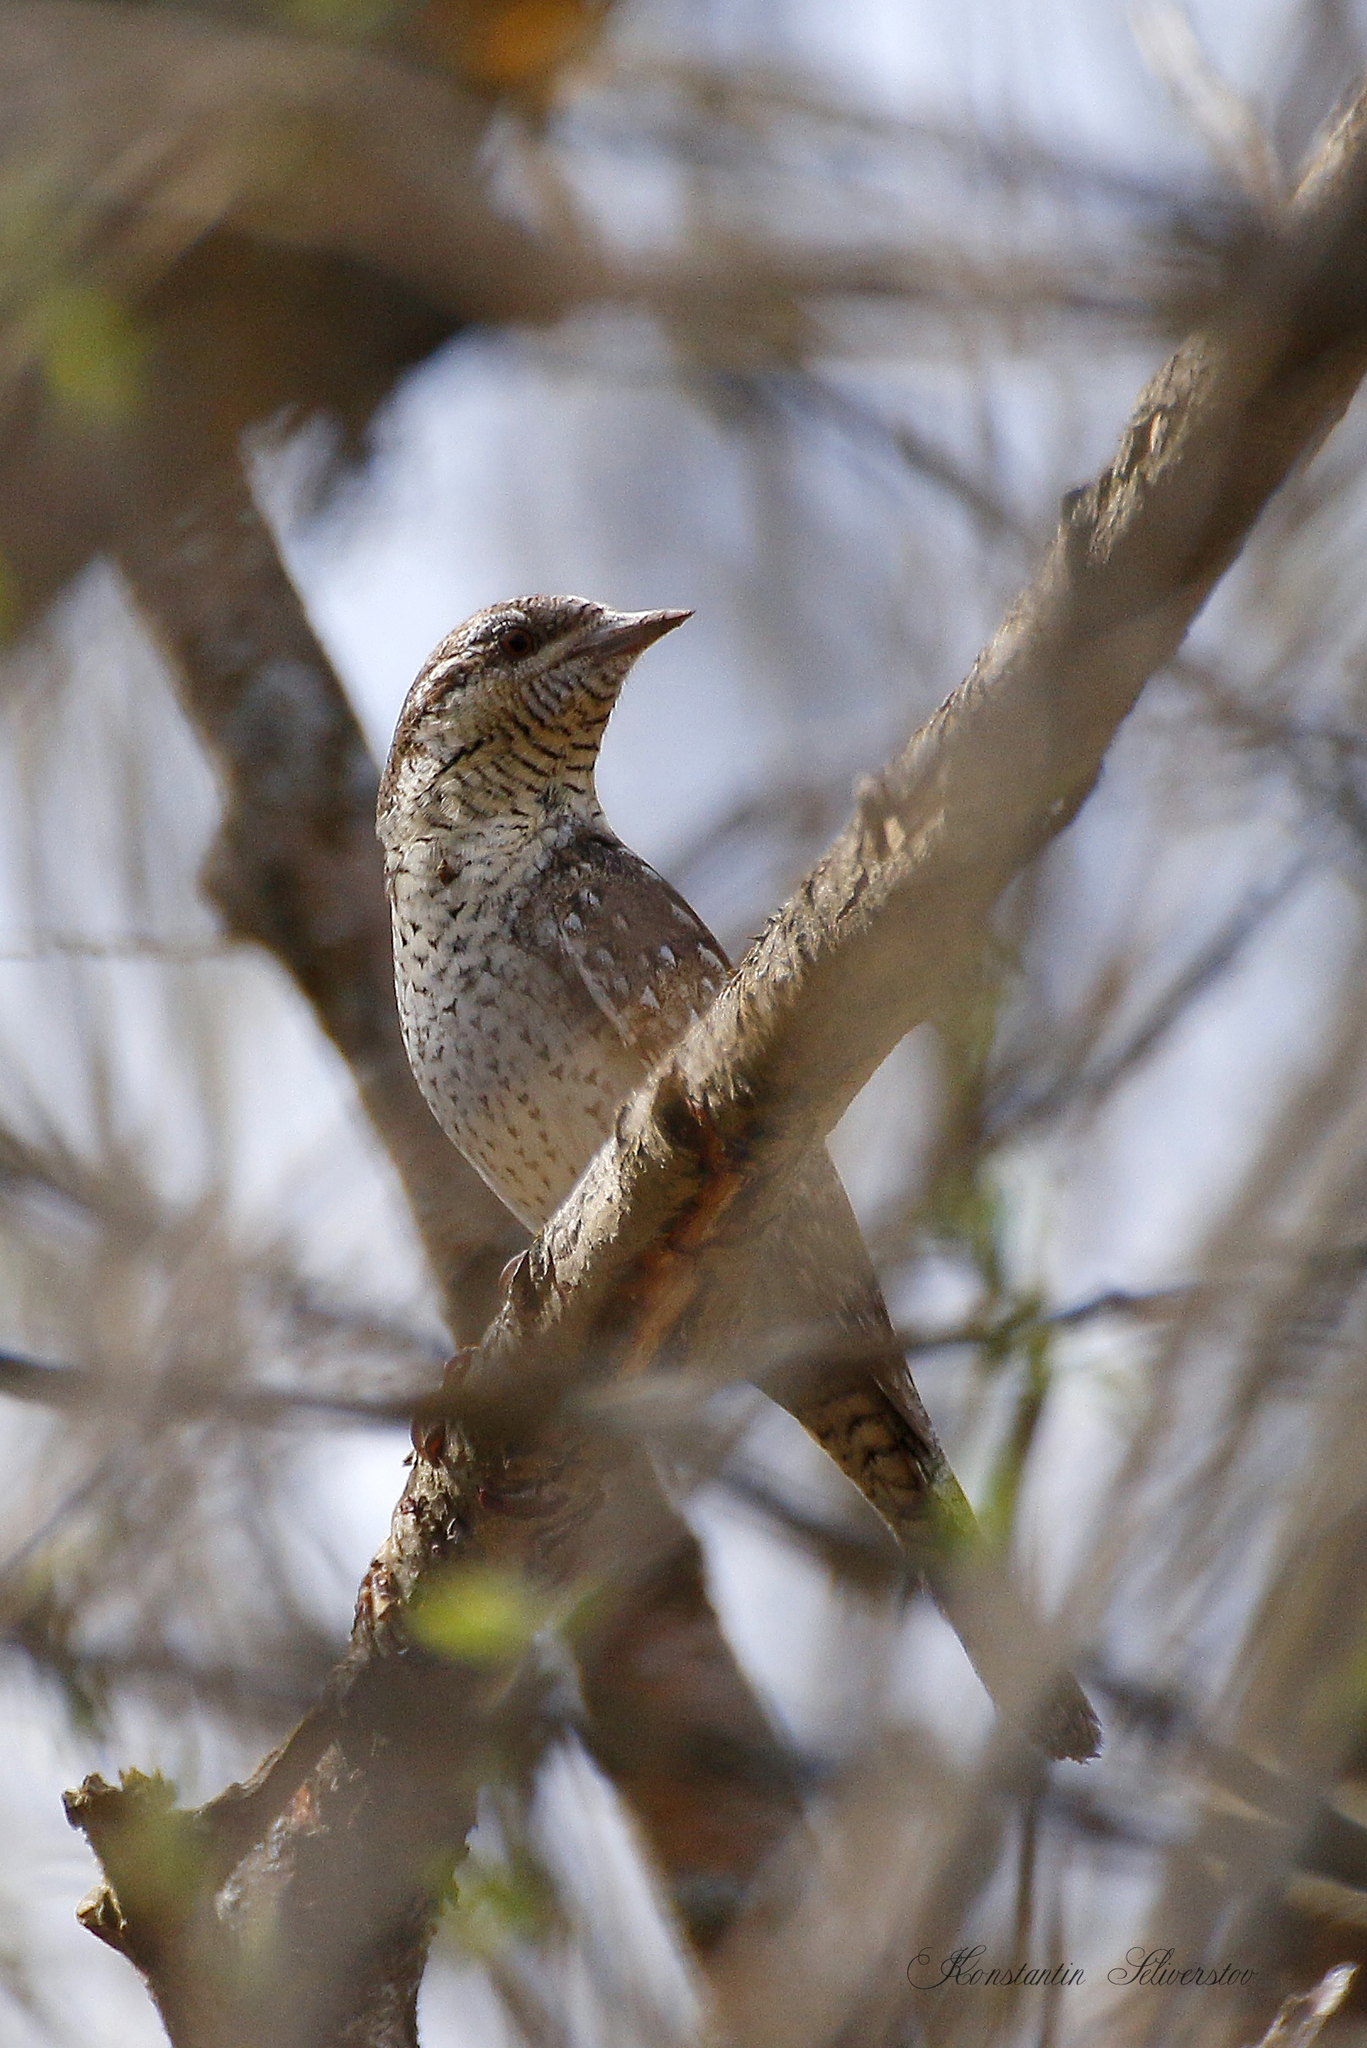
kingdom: Animalia
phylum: Chordata
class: Aves
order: Piciformes
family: Picidae
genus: Jynx
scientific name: Jynx torquilla
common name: Eurasian wryneck
